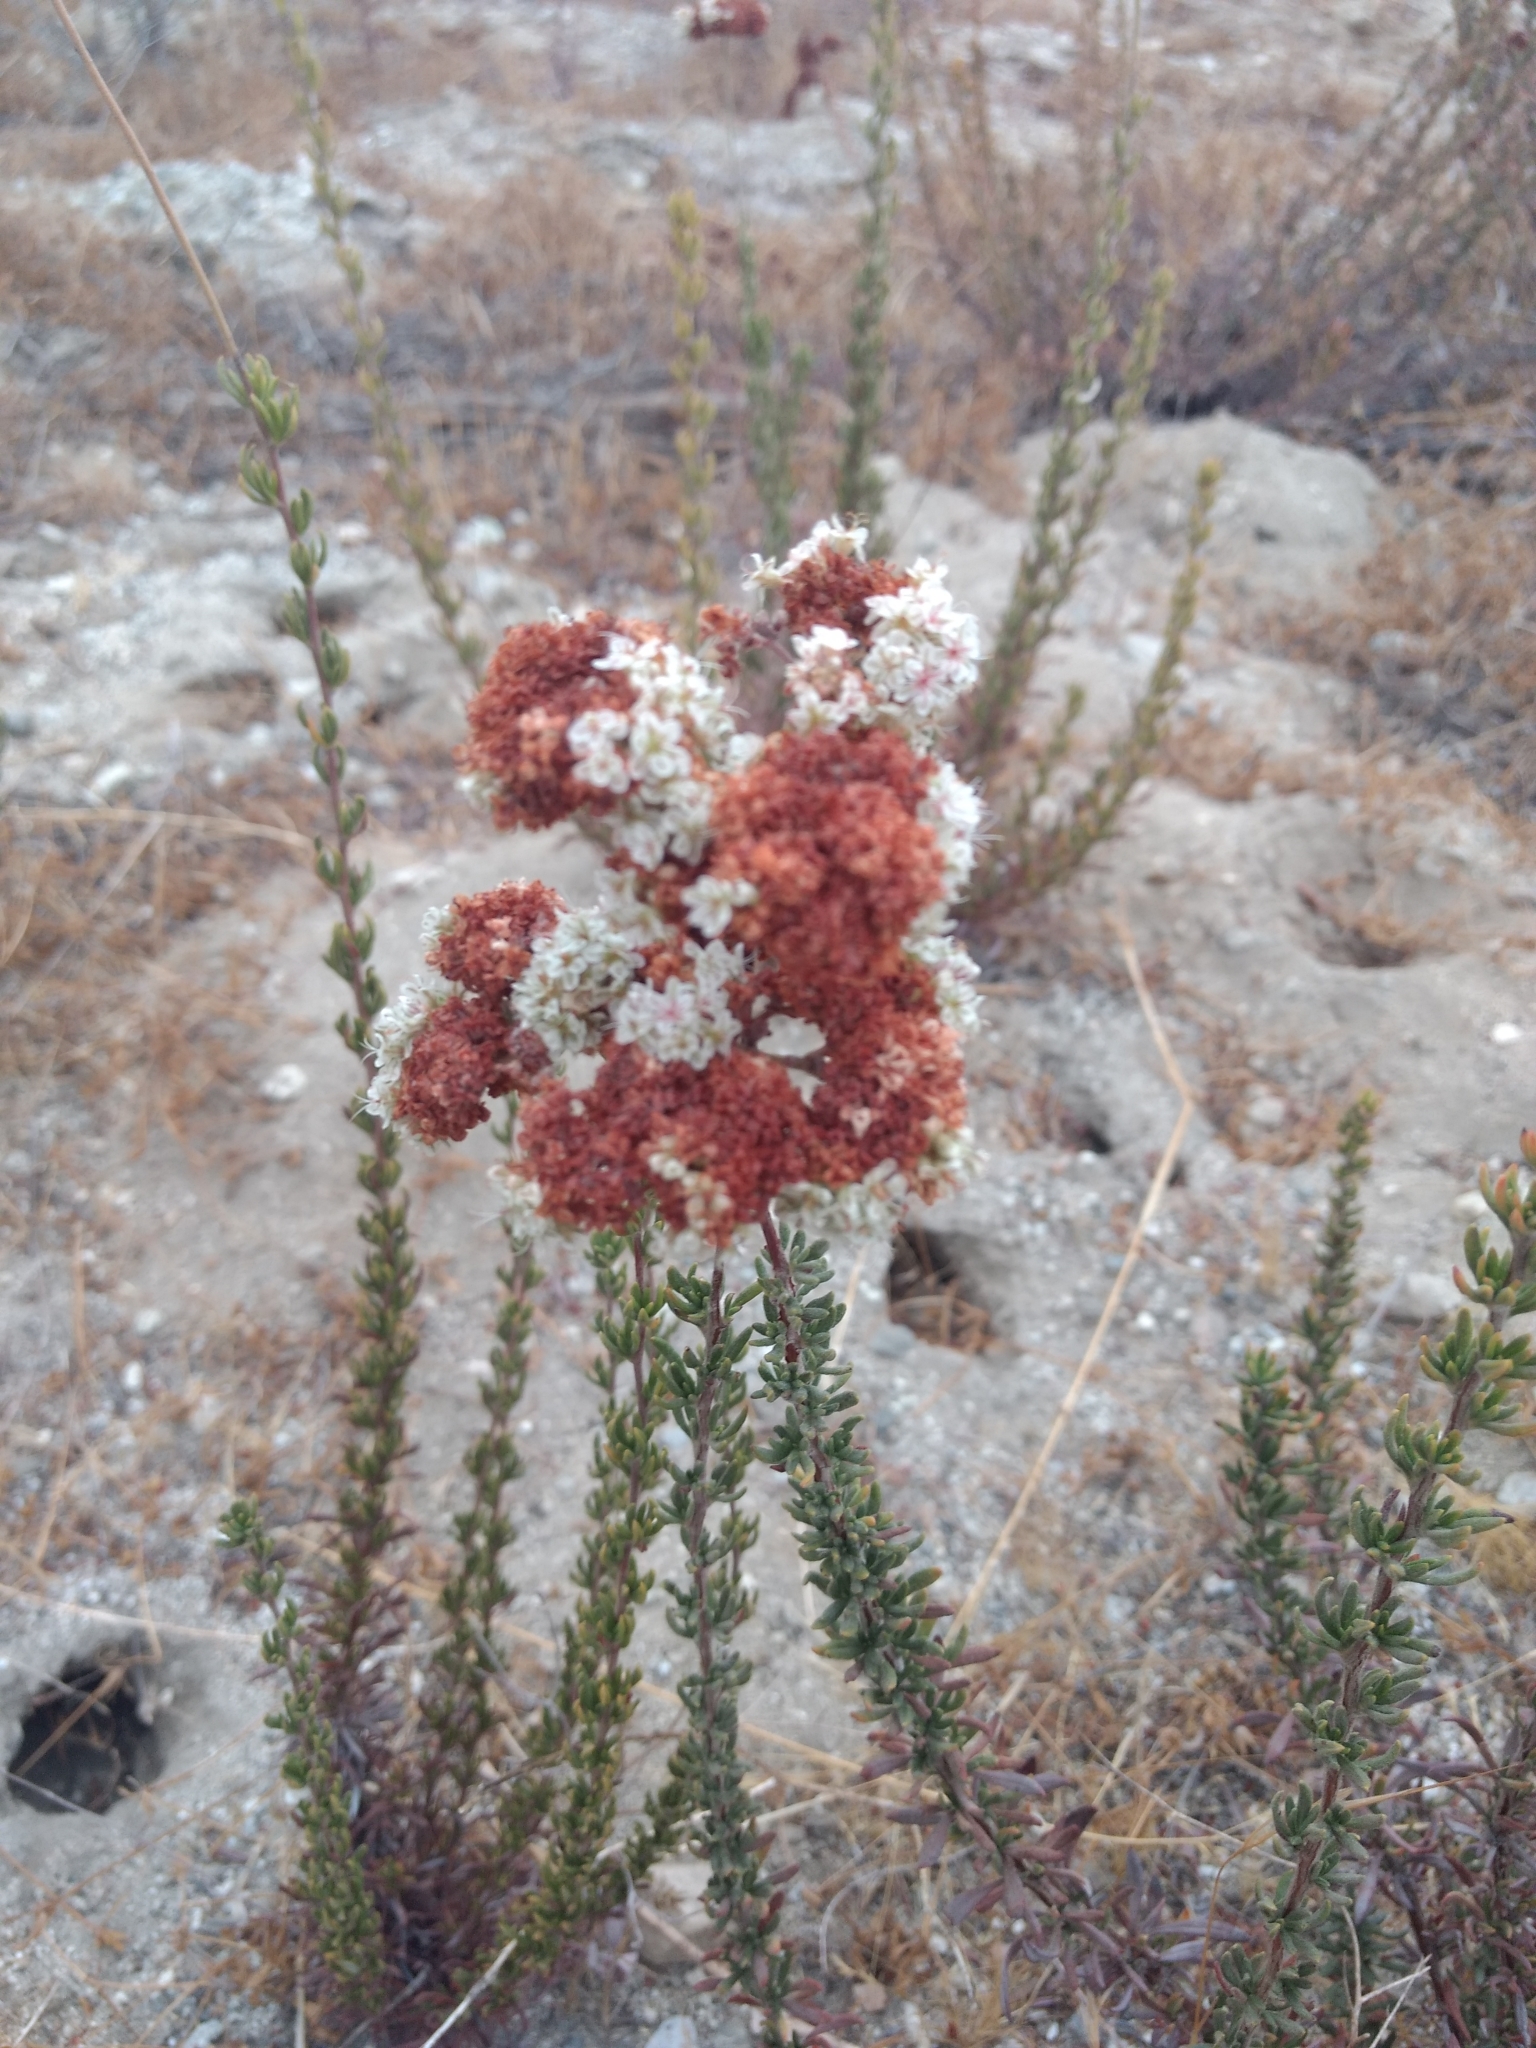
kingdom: Plantae
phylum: Tracheophyta
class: Magnoliopsida
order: Caryophyllales
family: Polygonaceae
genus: Eriogonum
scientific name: Eriogonum fasciculatum
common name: California wild buckwheat
